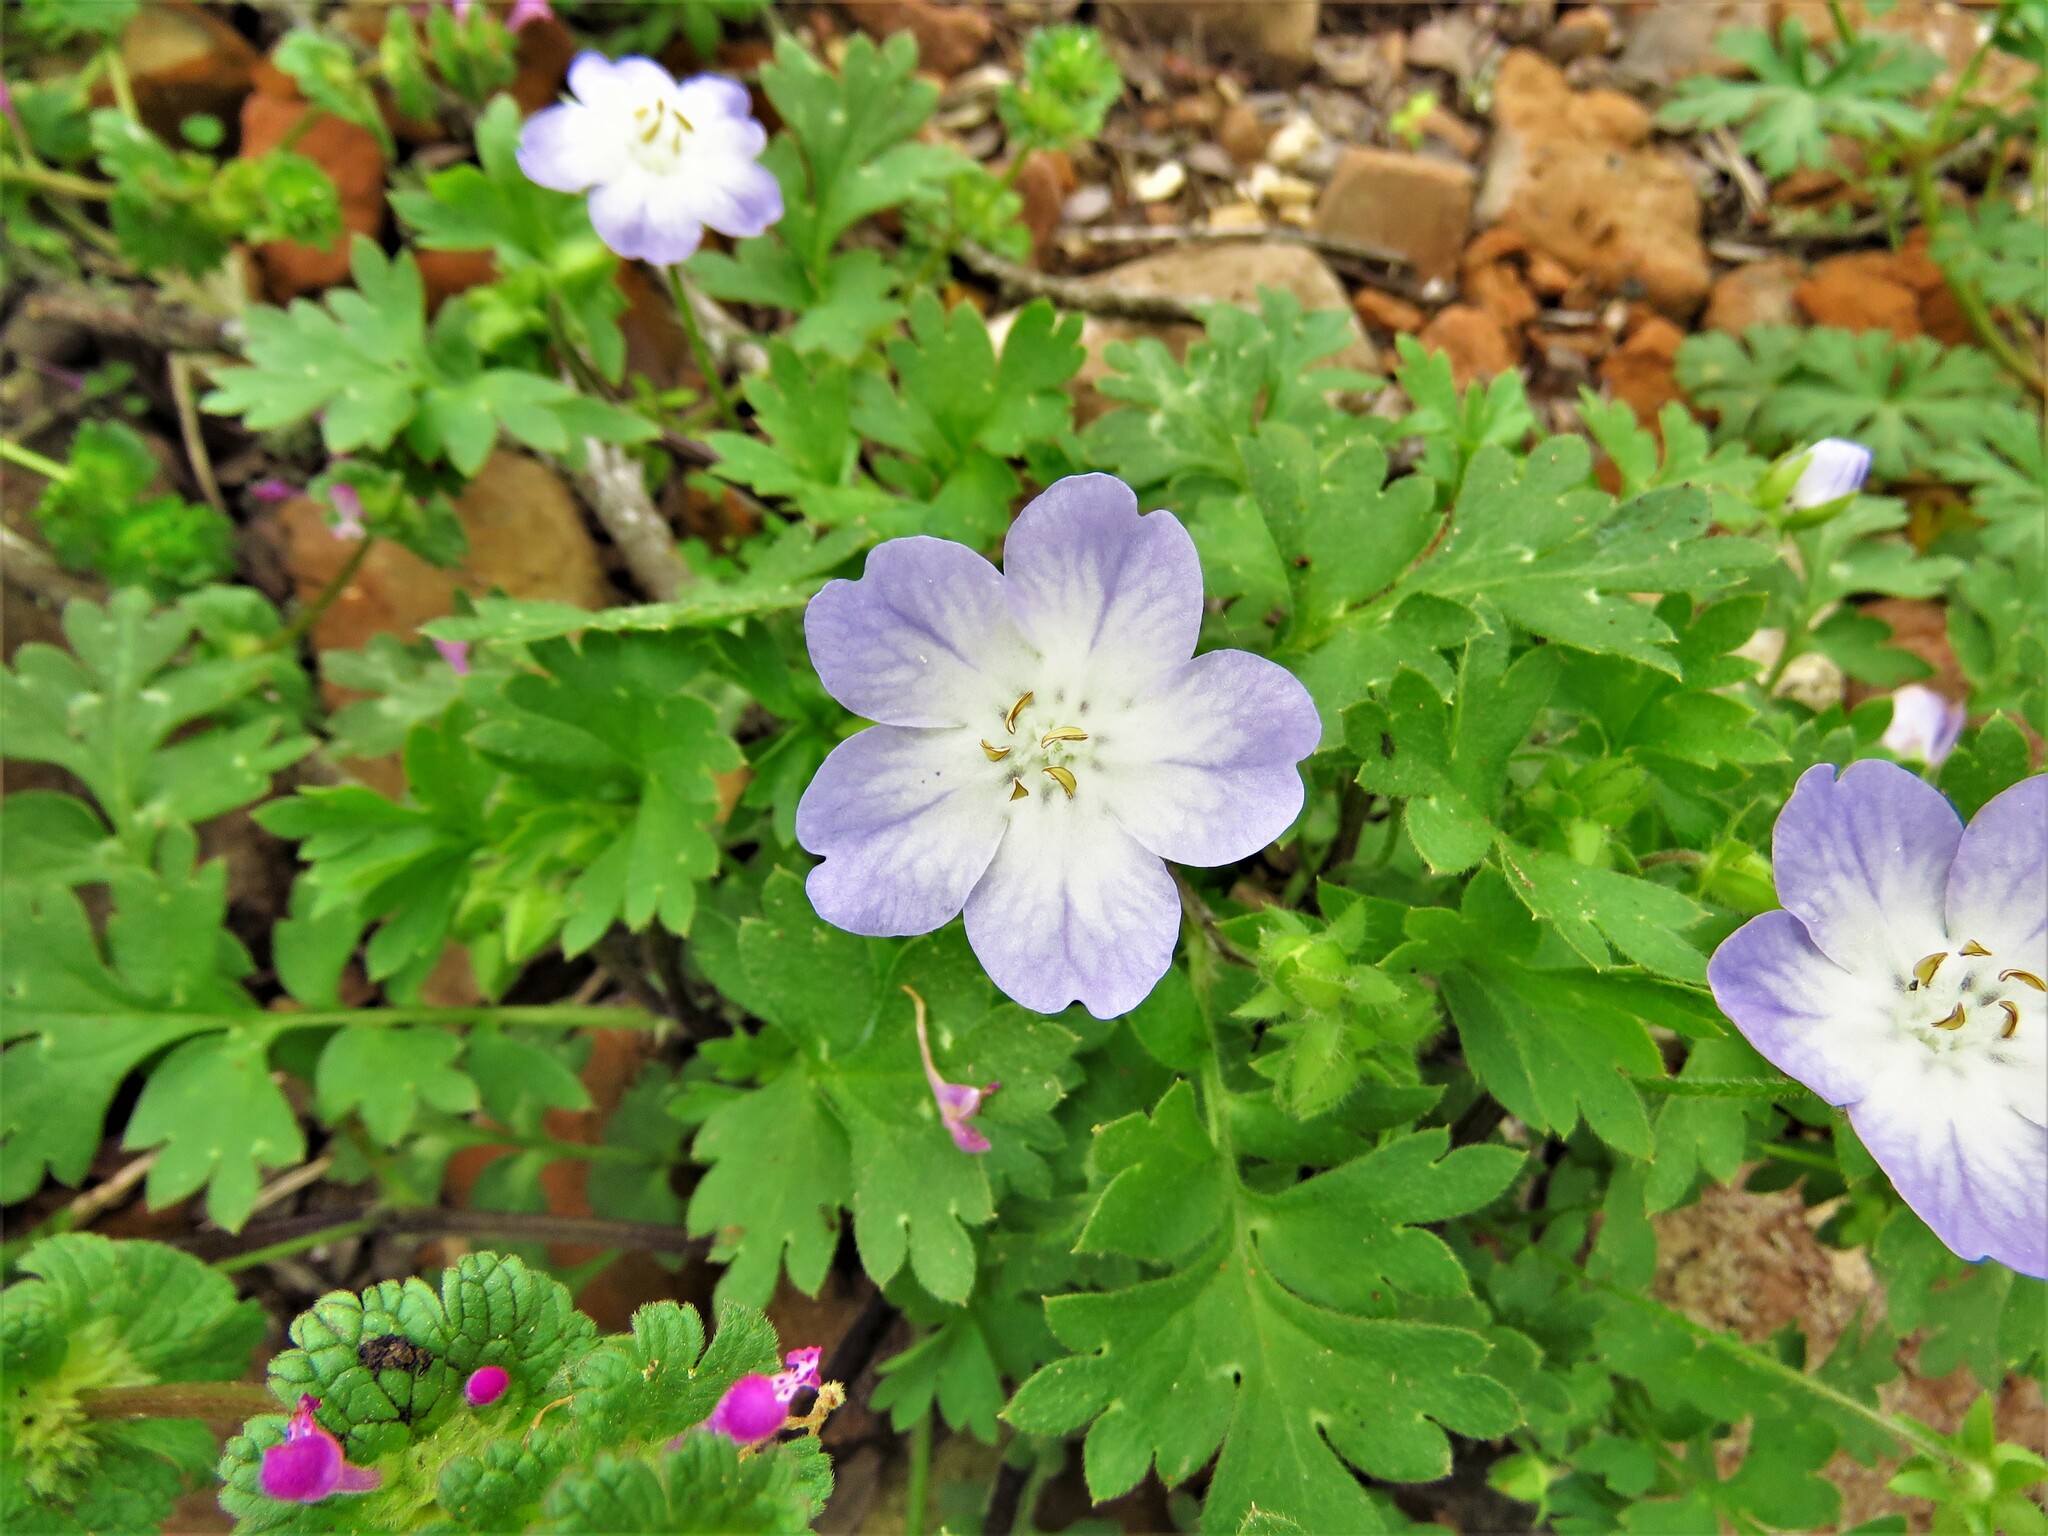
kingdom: Plantae
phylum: Tracheophyta
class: Magnoliopsida
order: Boraginales
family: Hydrophyllaceae
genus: Nemophila
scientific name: Nemophila phacelioides
